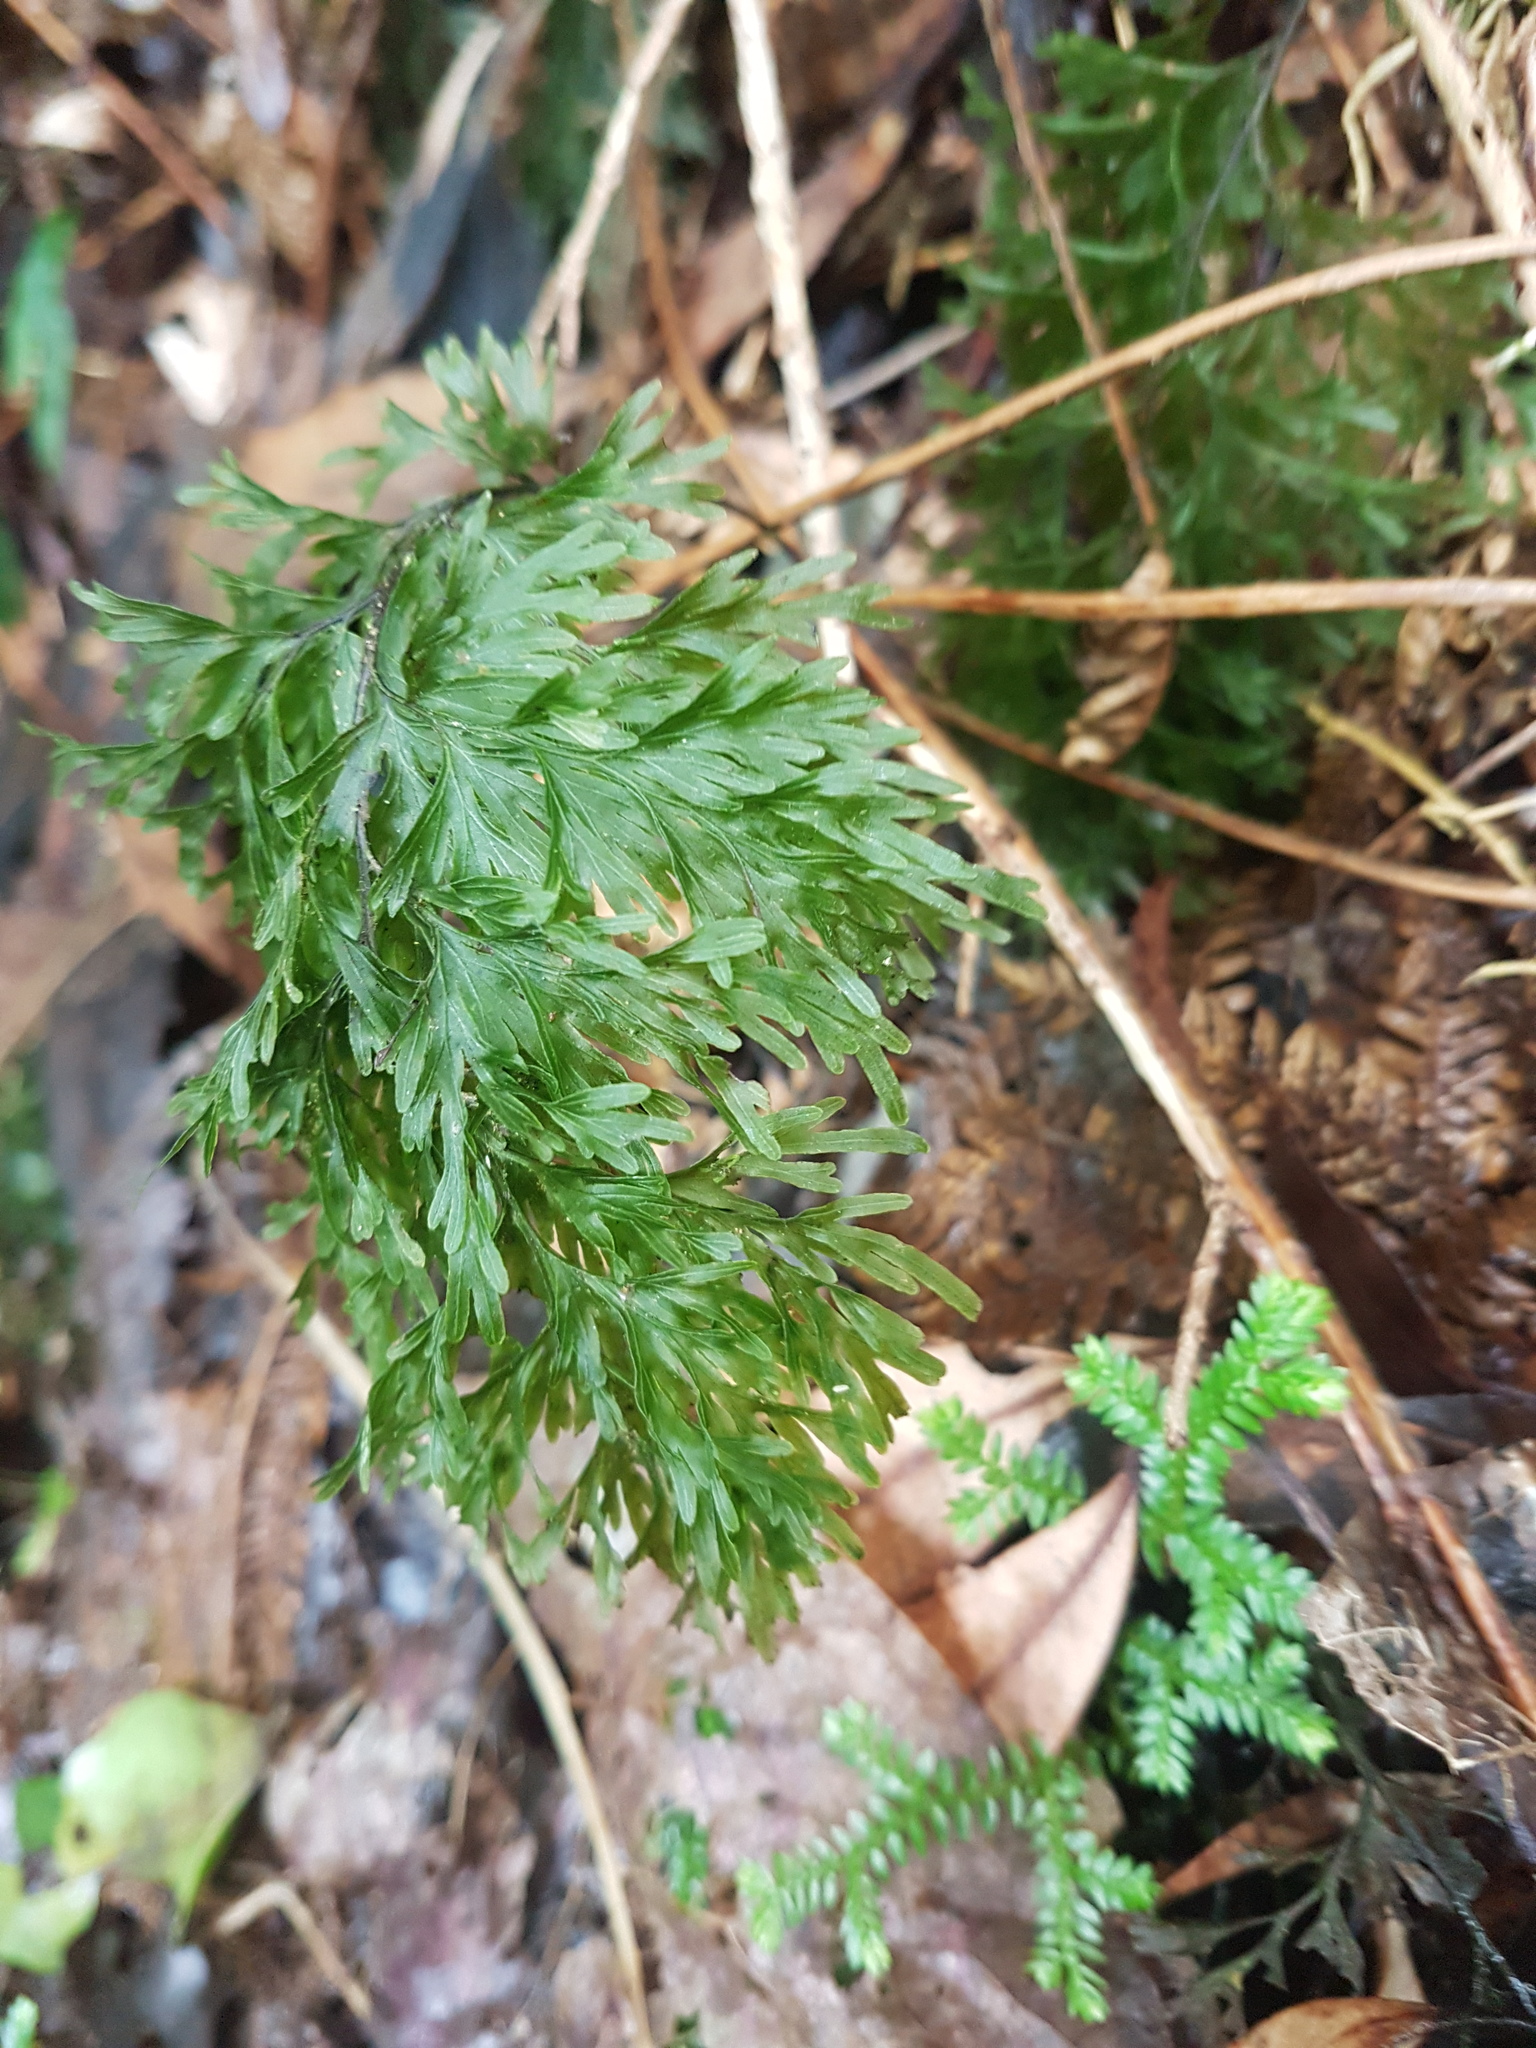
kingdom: Plantae
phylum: Tracheophyta
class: Polypodiopsida
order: Hymenophyllales
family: Hymenophyllaceae
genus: Hymenophyllum
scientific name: Hymenophyllum demissum
